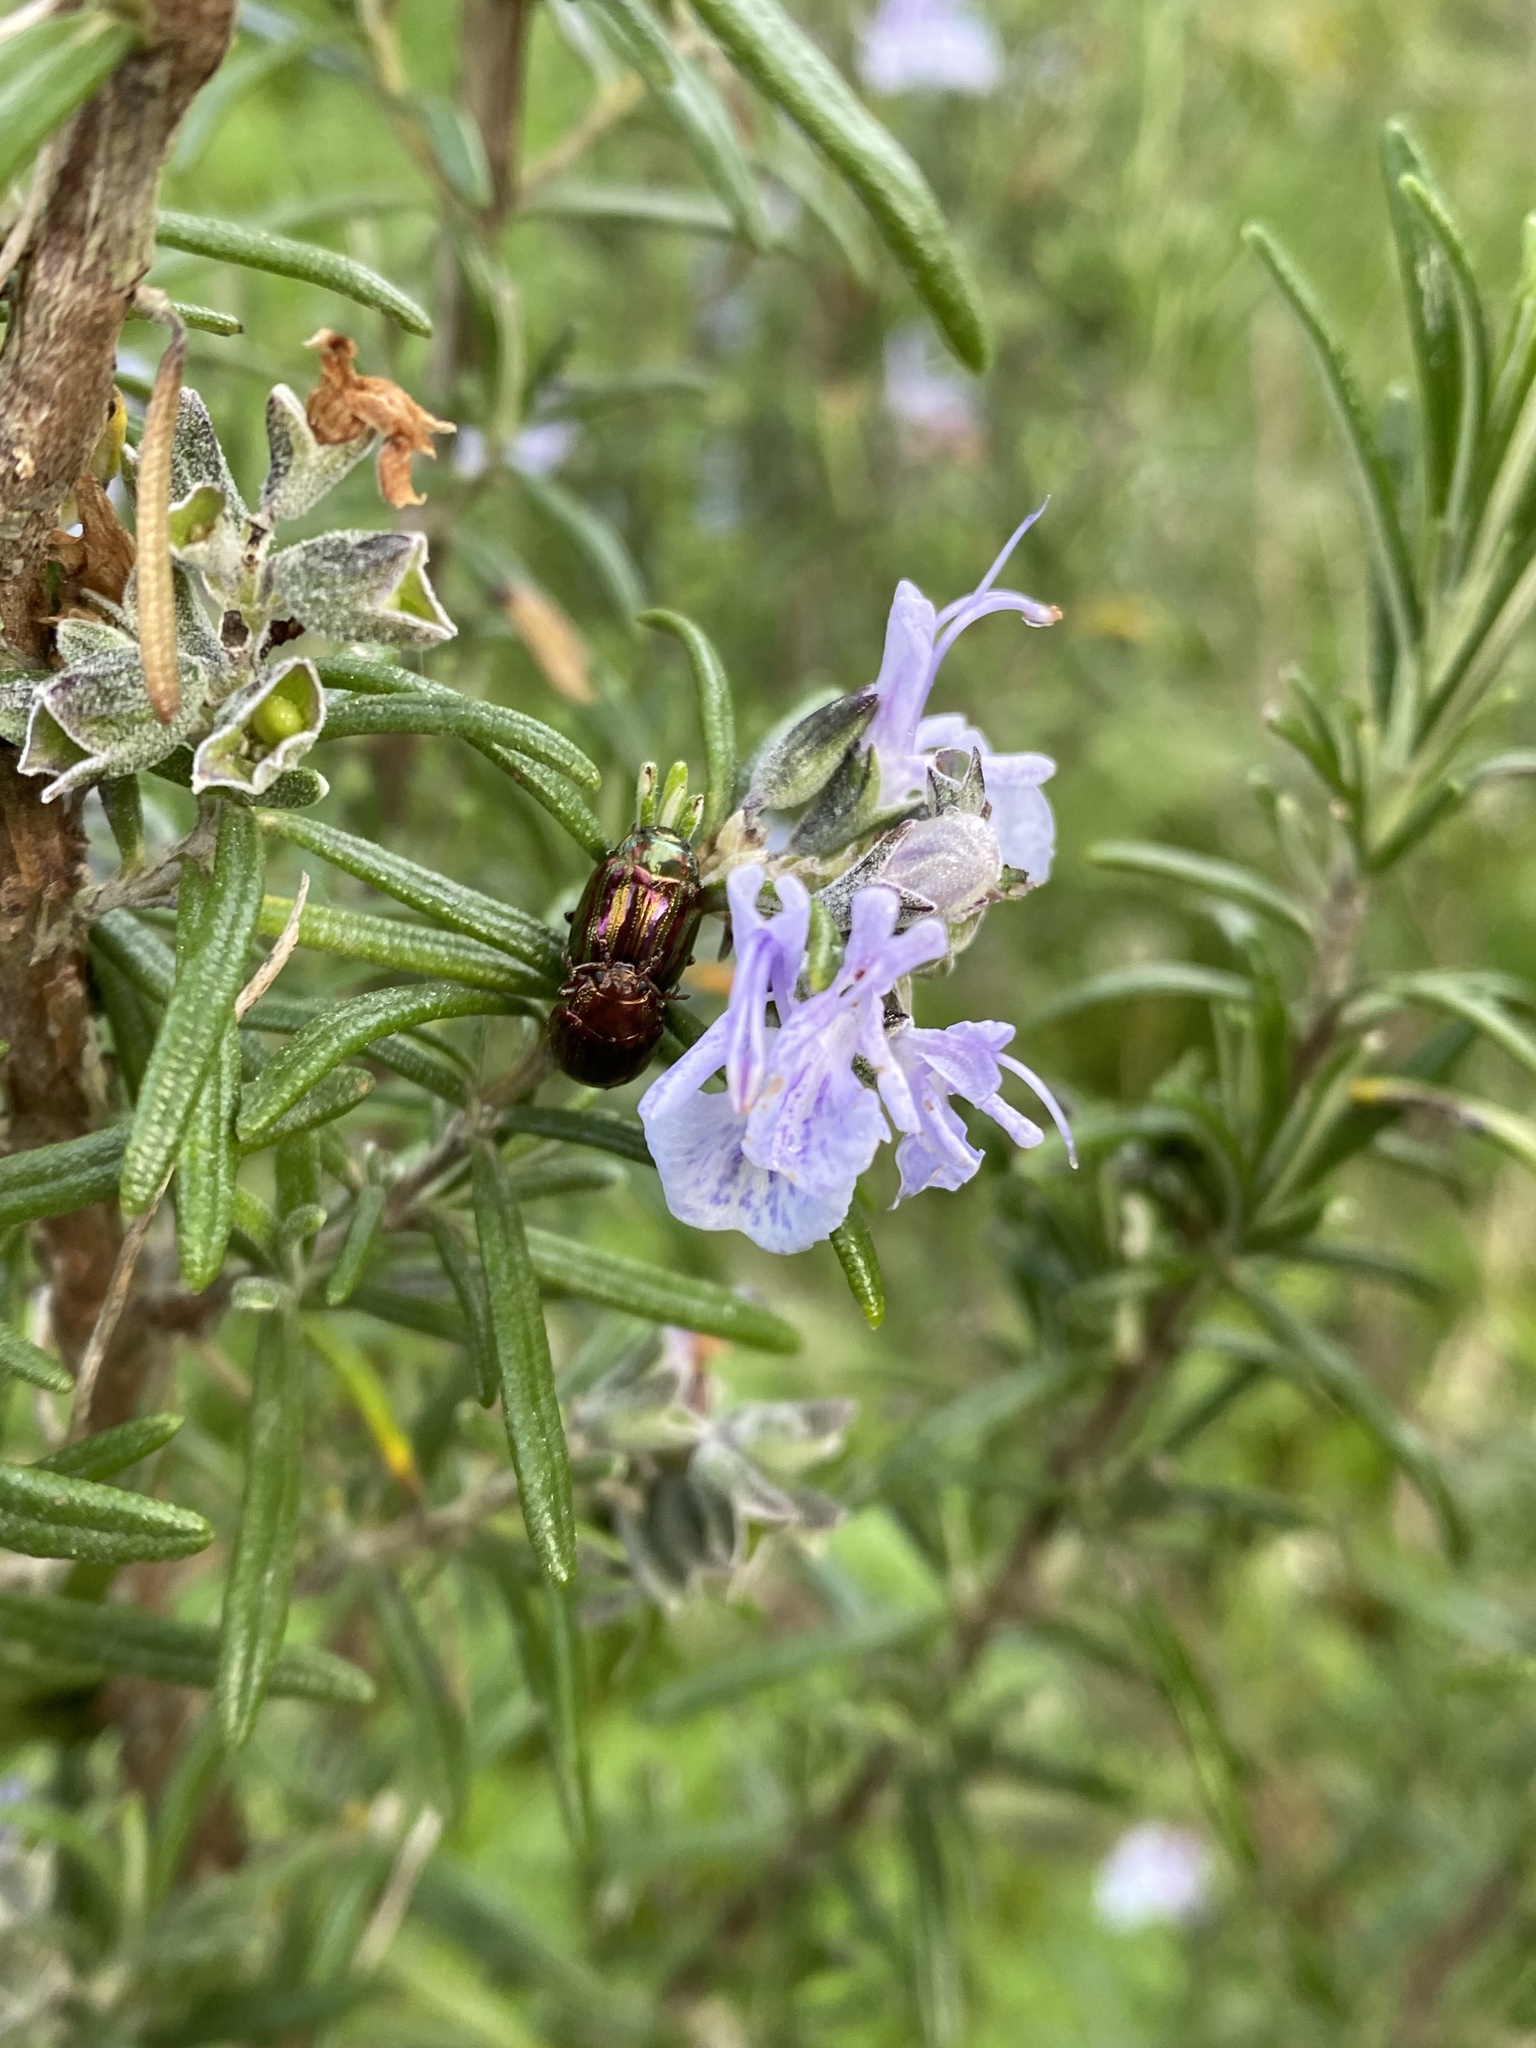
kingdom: Animalia
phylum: Arthropoda
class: Insecta
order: Coleoptera
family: Chrysomelidae
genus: Chrysolina
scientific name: Chrysolina americana
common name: Rosemary beetle
